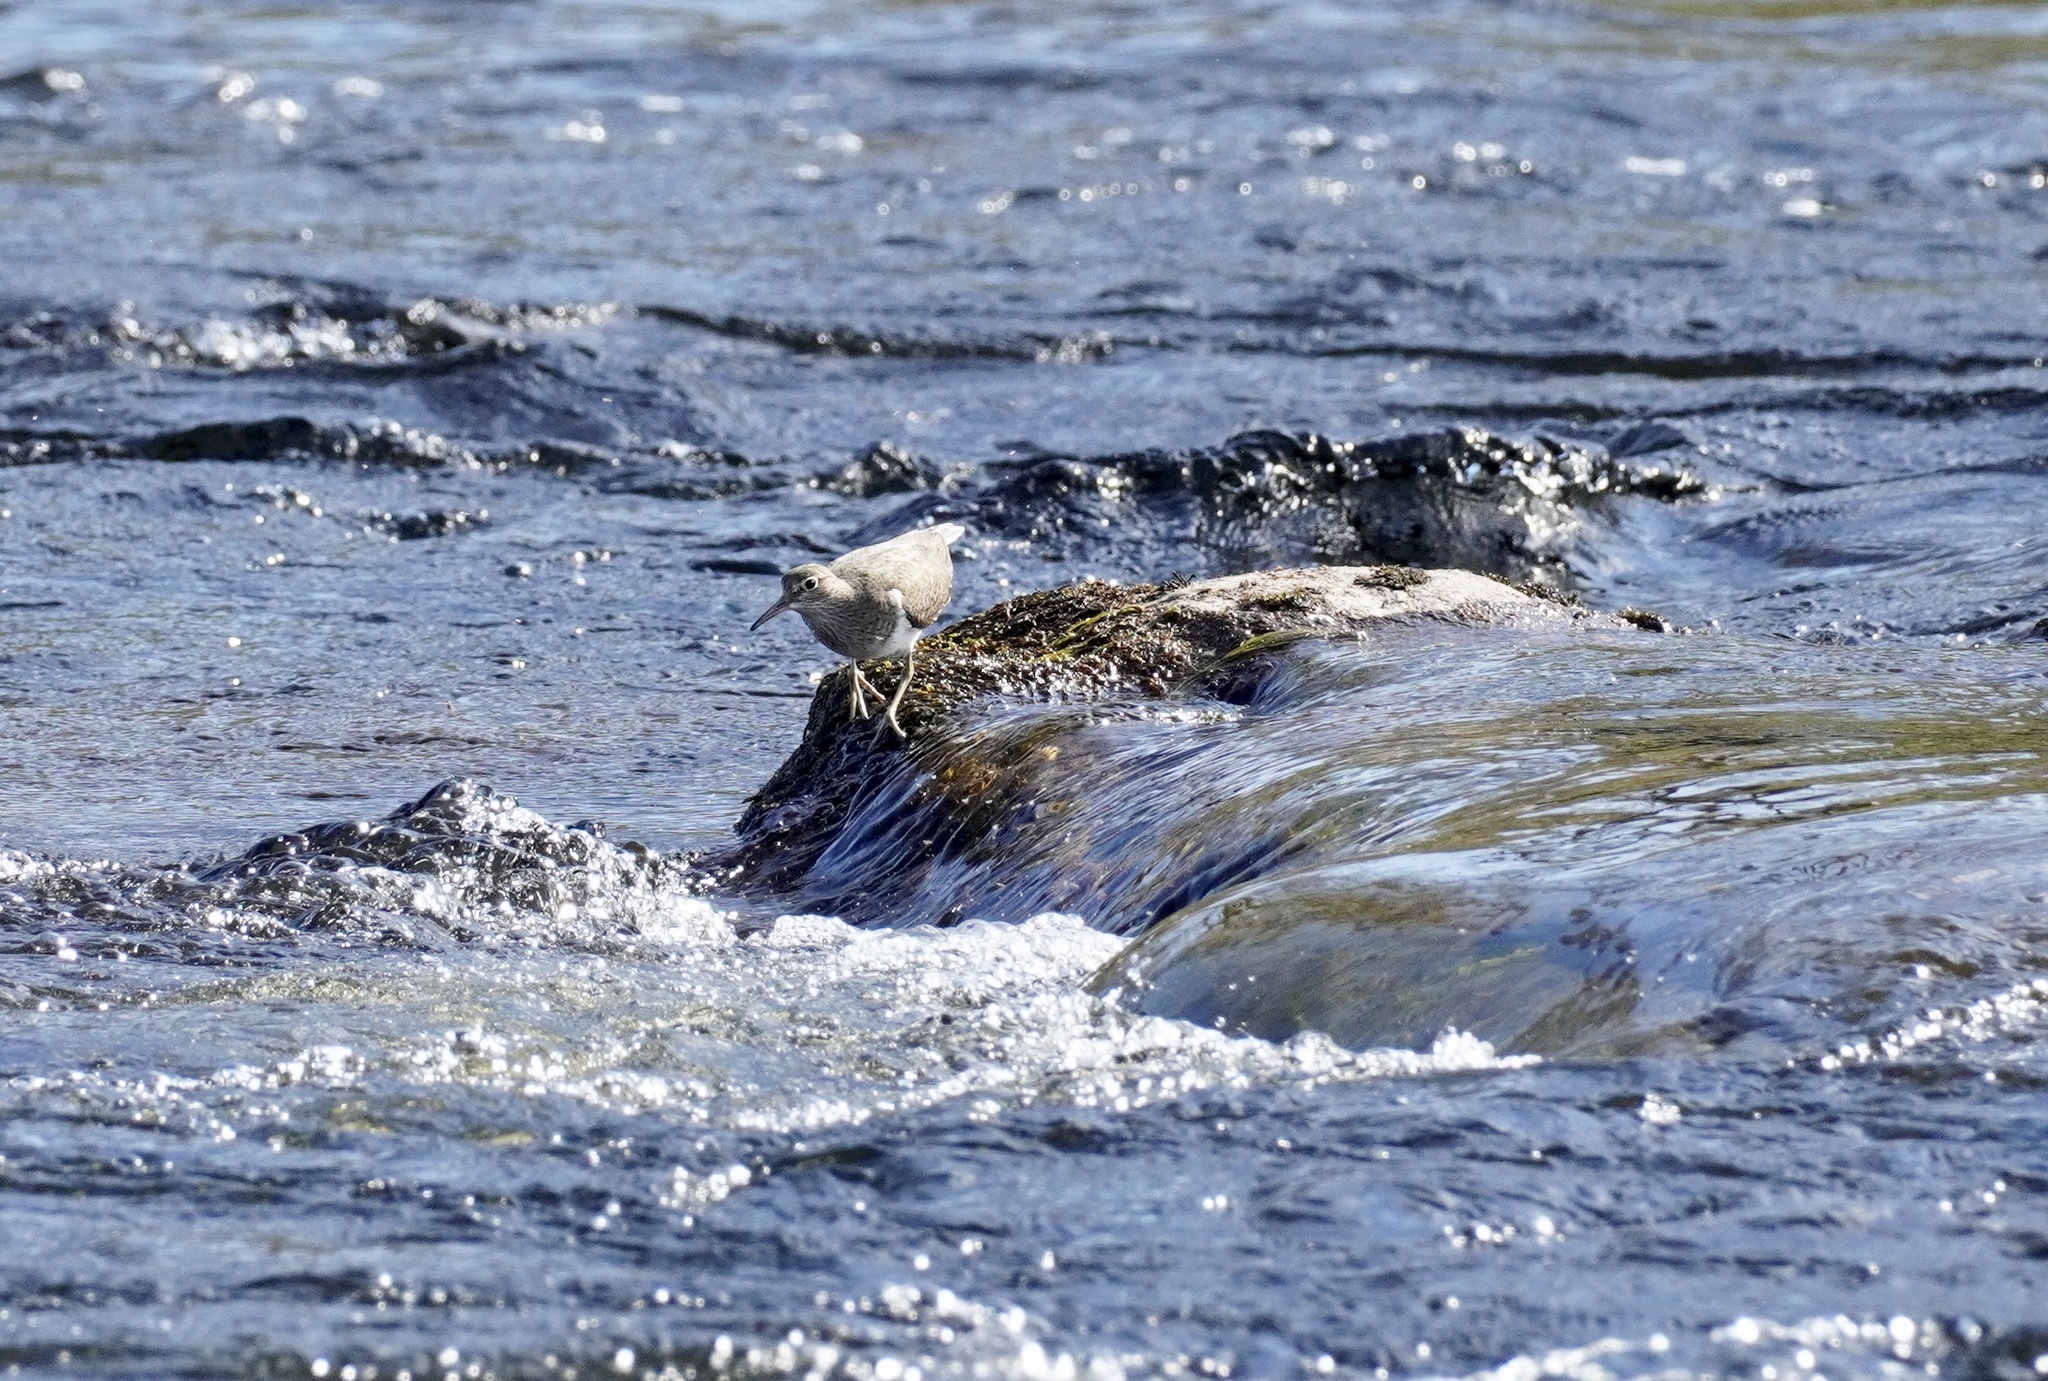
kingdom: Animalia
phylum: Chordata
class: Aves
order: Charadriiformes
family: Scolopacidae
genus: Actitis
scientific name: Actitis hypoleucos
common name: Common sandpiper
